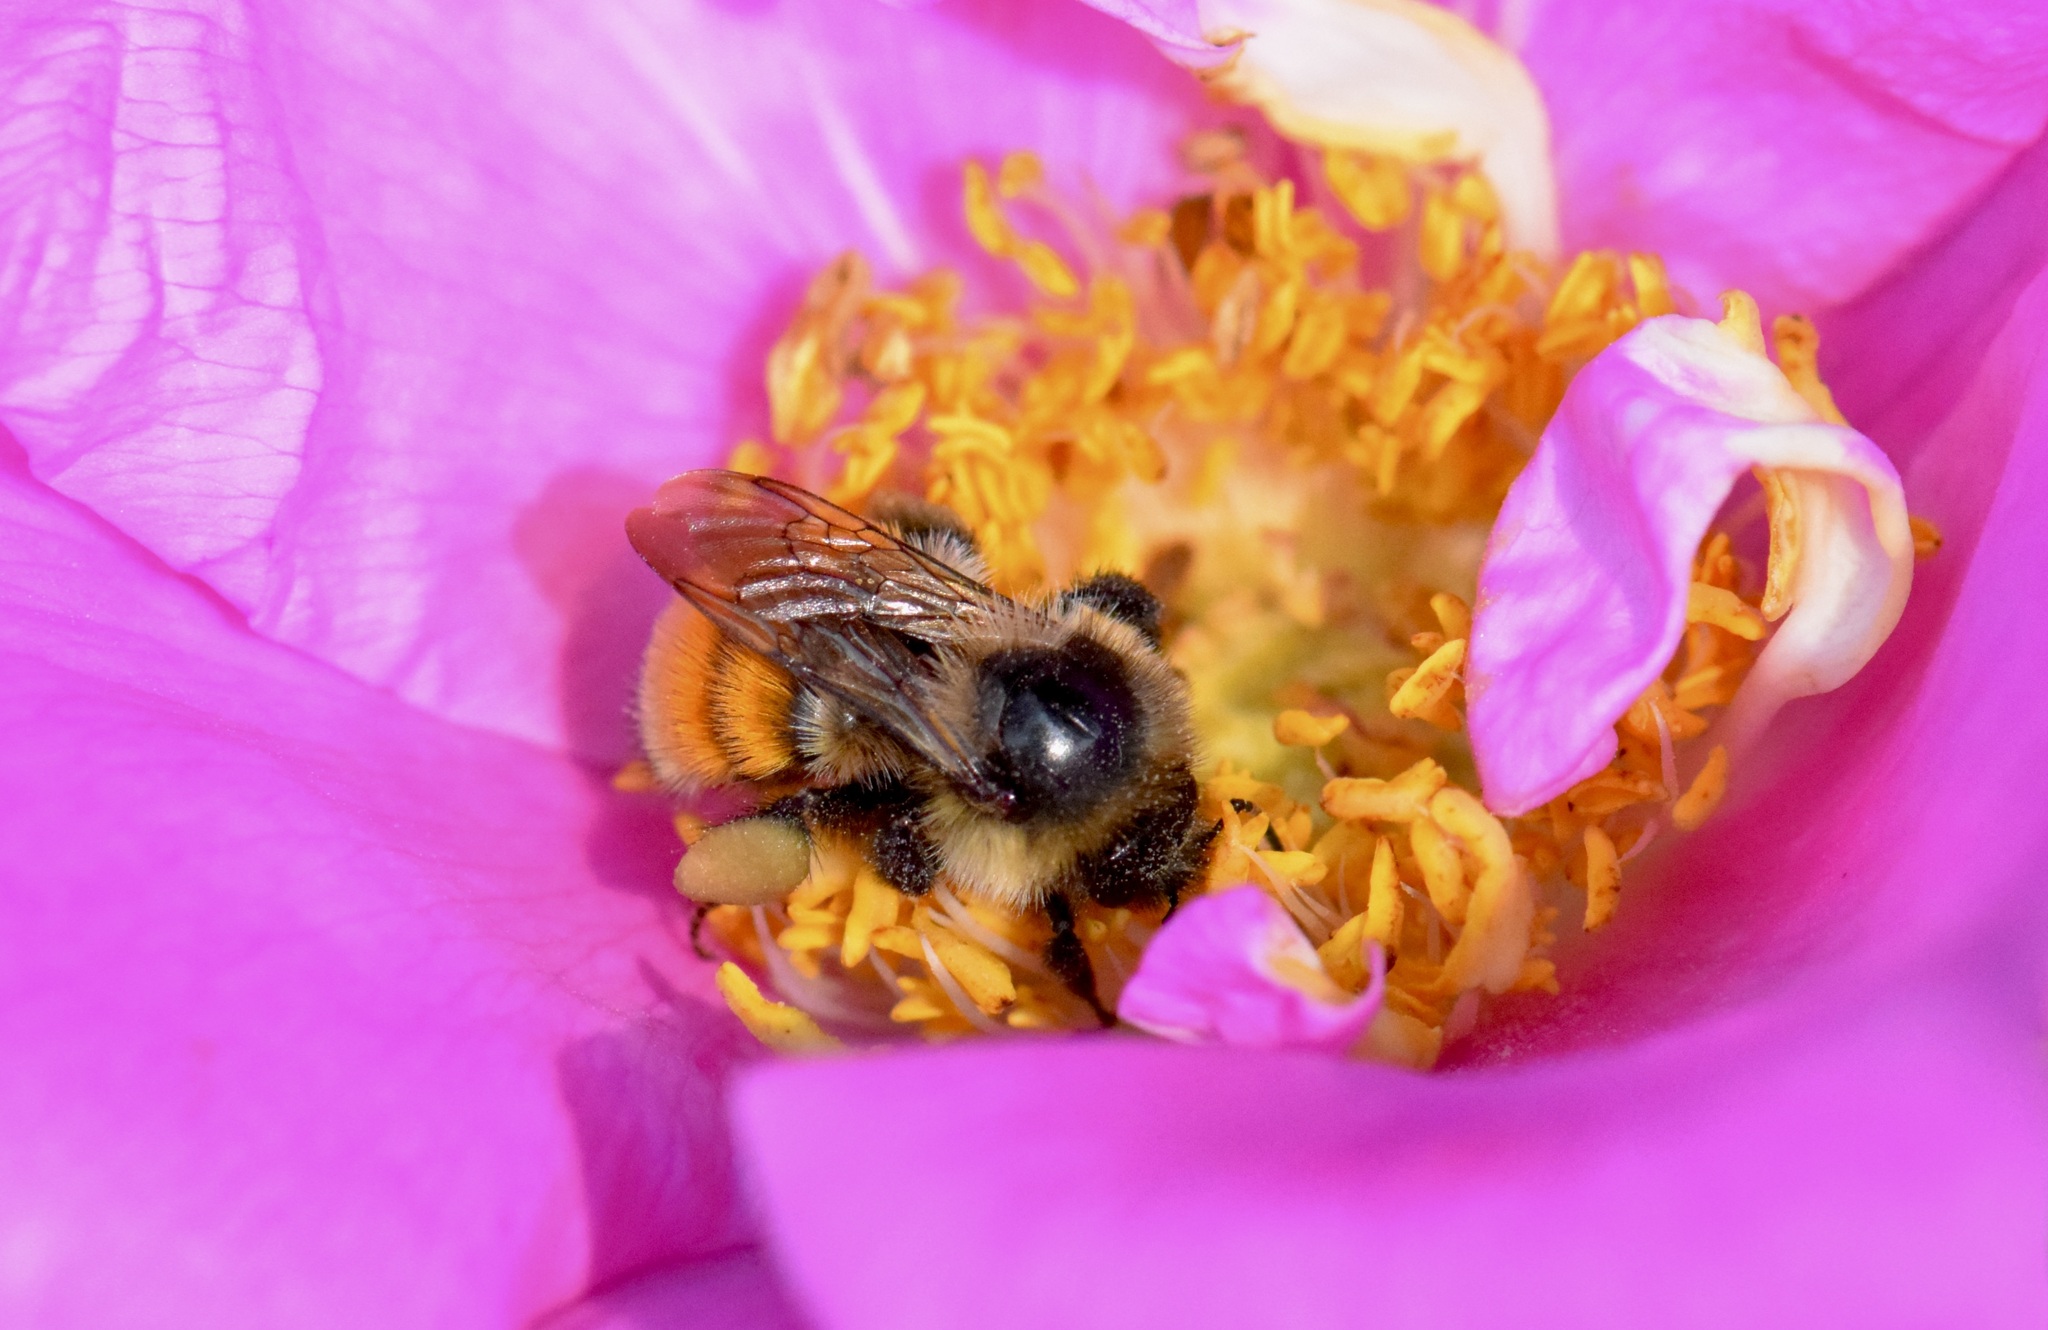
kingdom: Animalia
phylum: Arthropoda
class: Insecta
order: Hymenoptera
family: Apidae
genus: Bombus
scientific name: Bombus ternarius
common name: Tri-colored bumble bee
